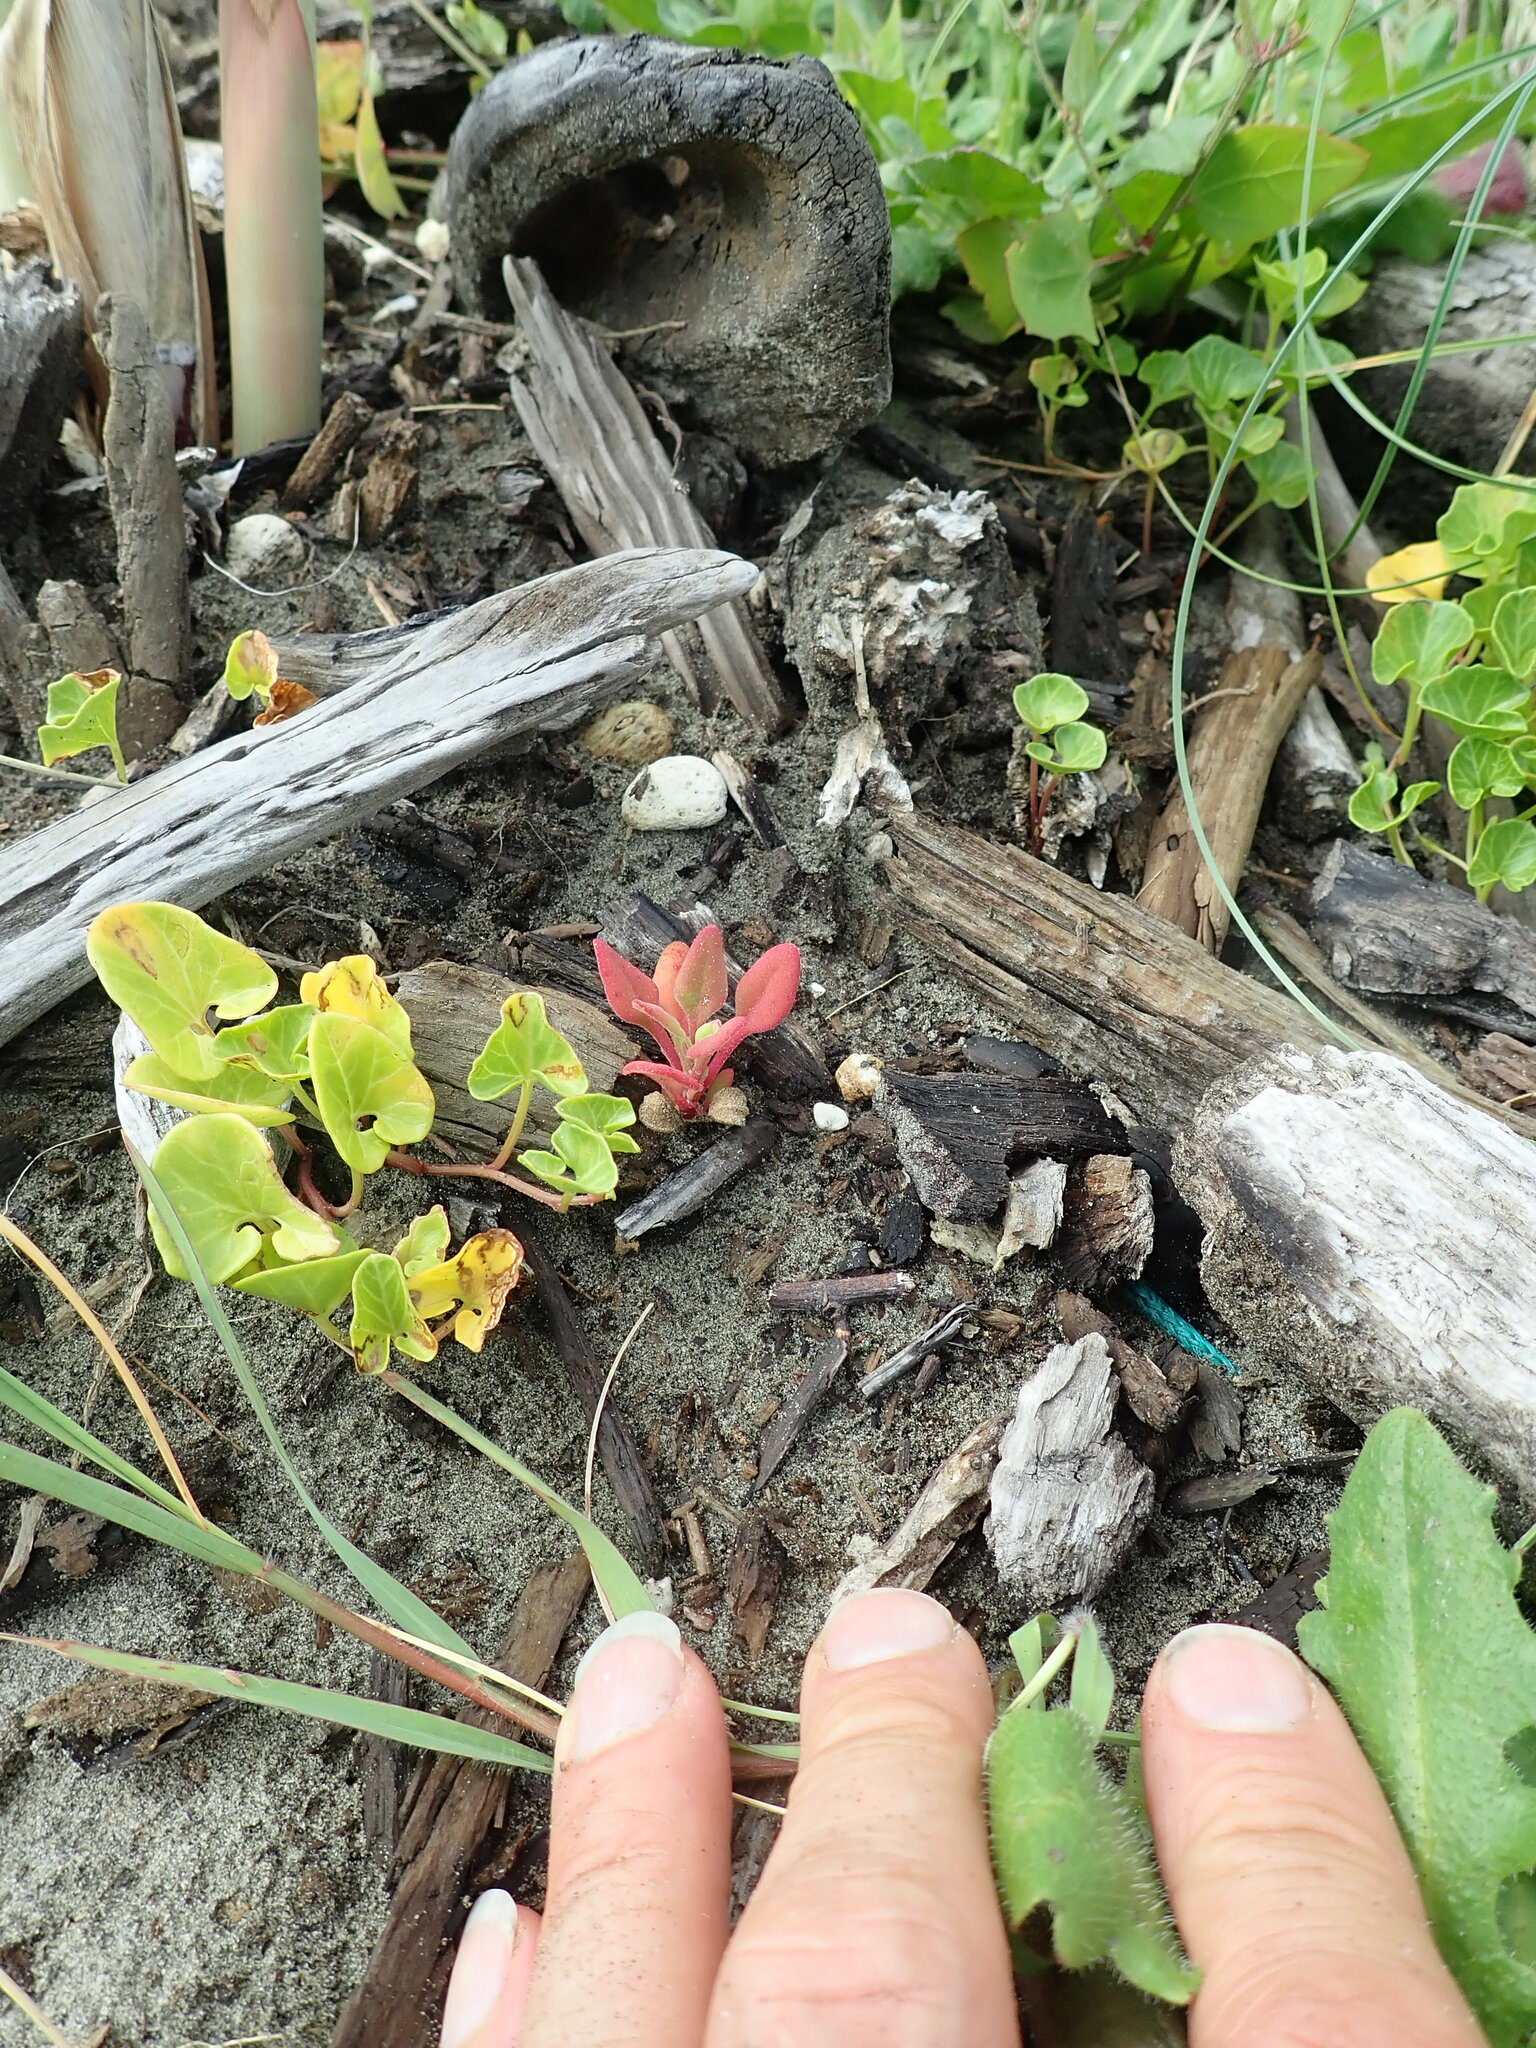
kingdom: Plantae
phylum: Tracheophyta
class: Magnoliopsida
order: Caryophyllales
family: Aizoaceae
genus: Tetragonia
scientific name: Tetragonia implexicoma
